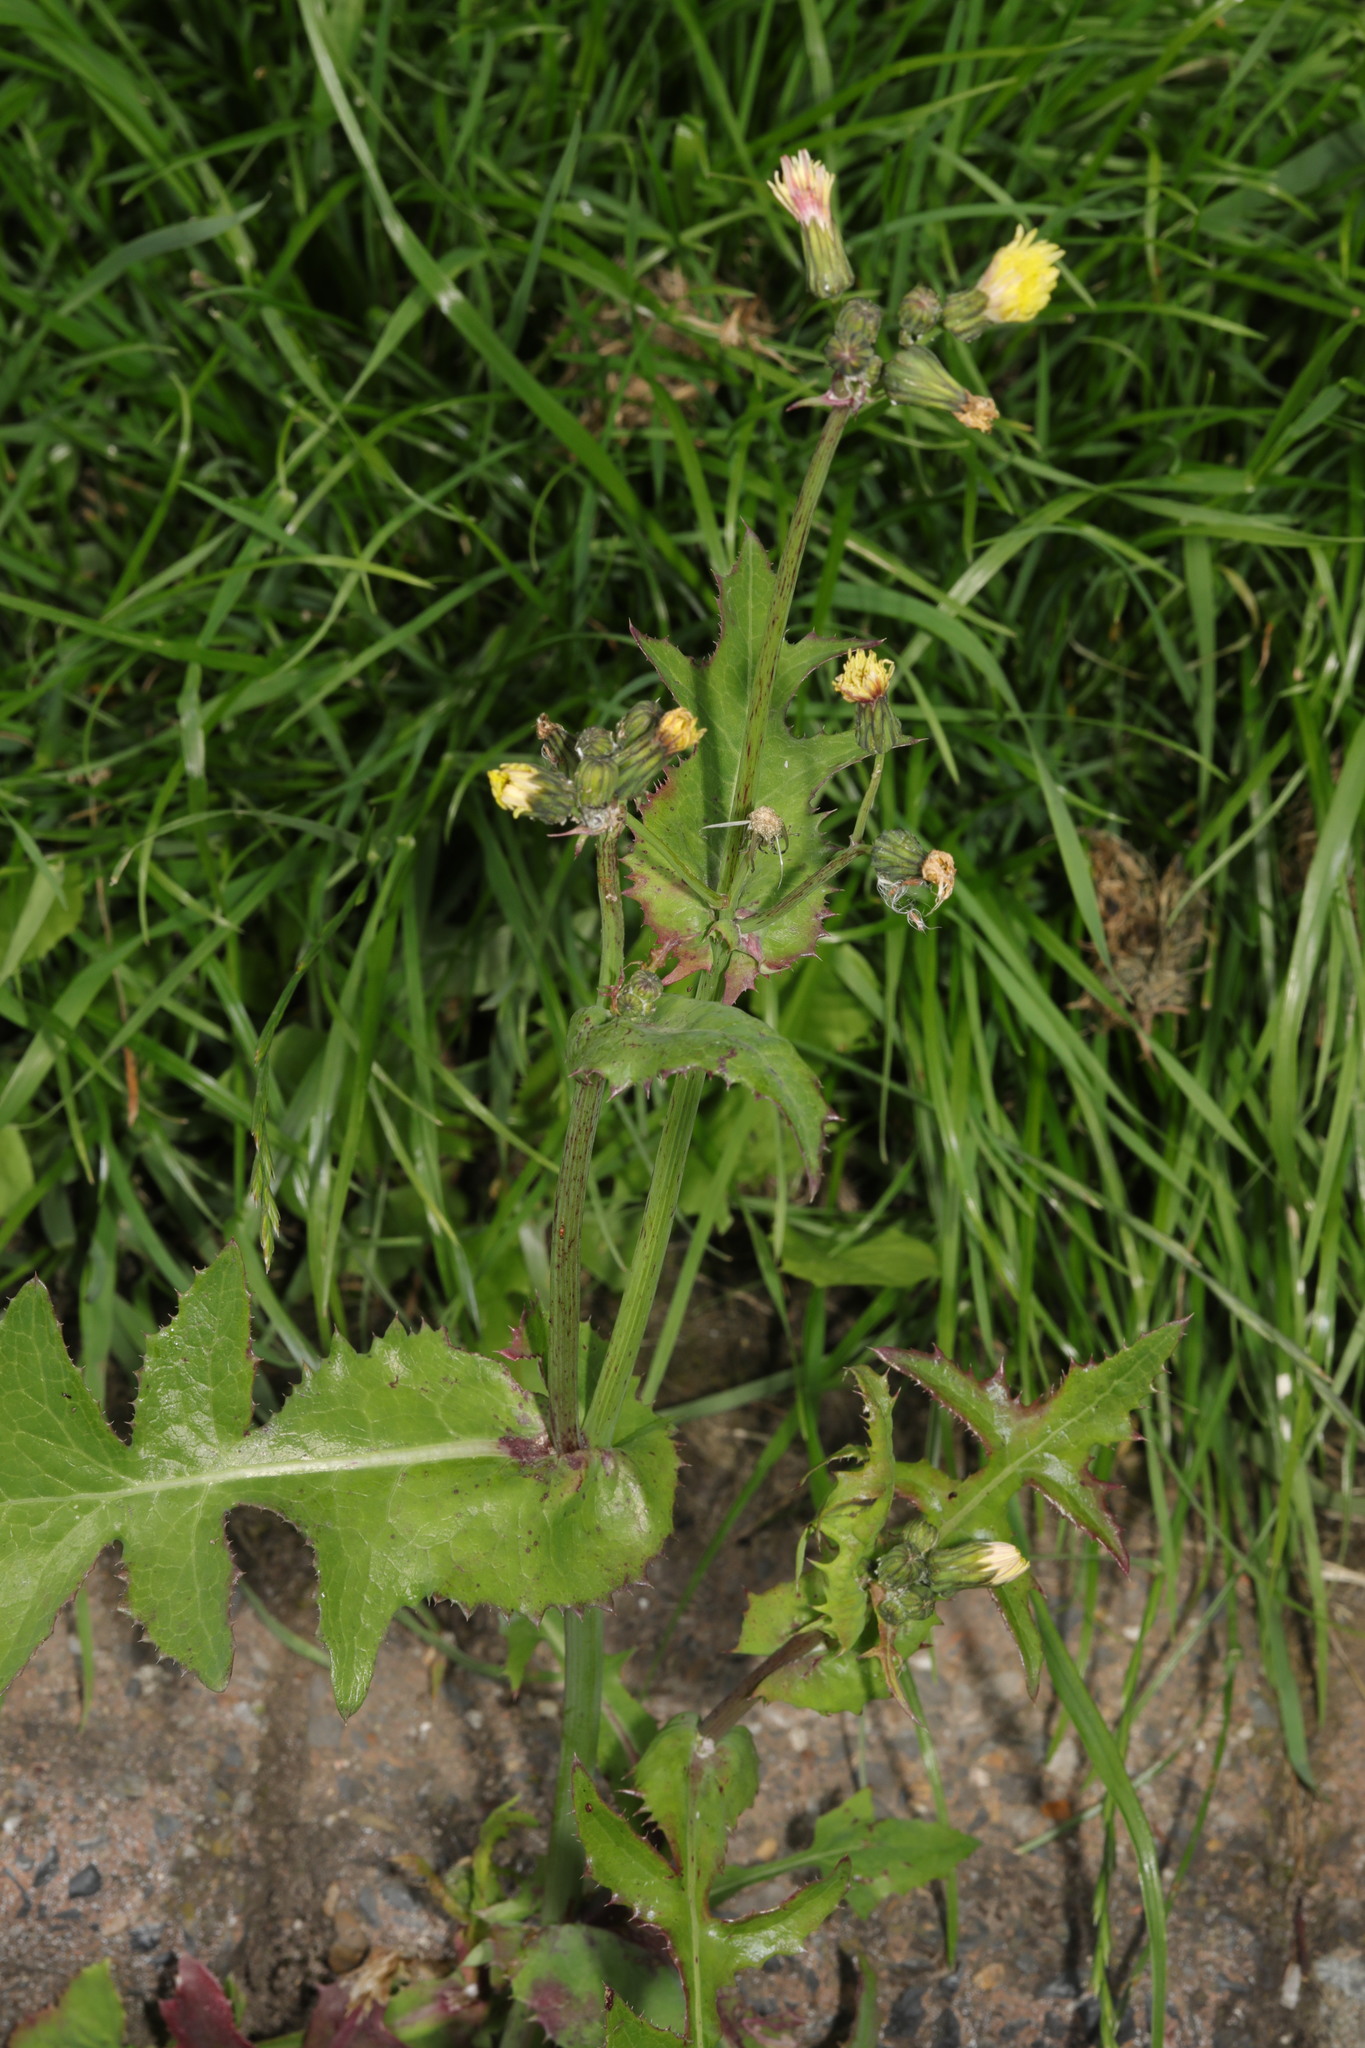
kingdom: Plantae
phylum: Tracheophyta
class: Magnoliopsida
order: Asterales
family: Asteraceae
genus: Sonchus
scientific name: Sonchus oleraceus
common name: Common sowthistle
